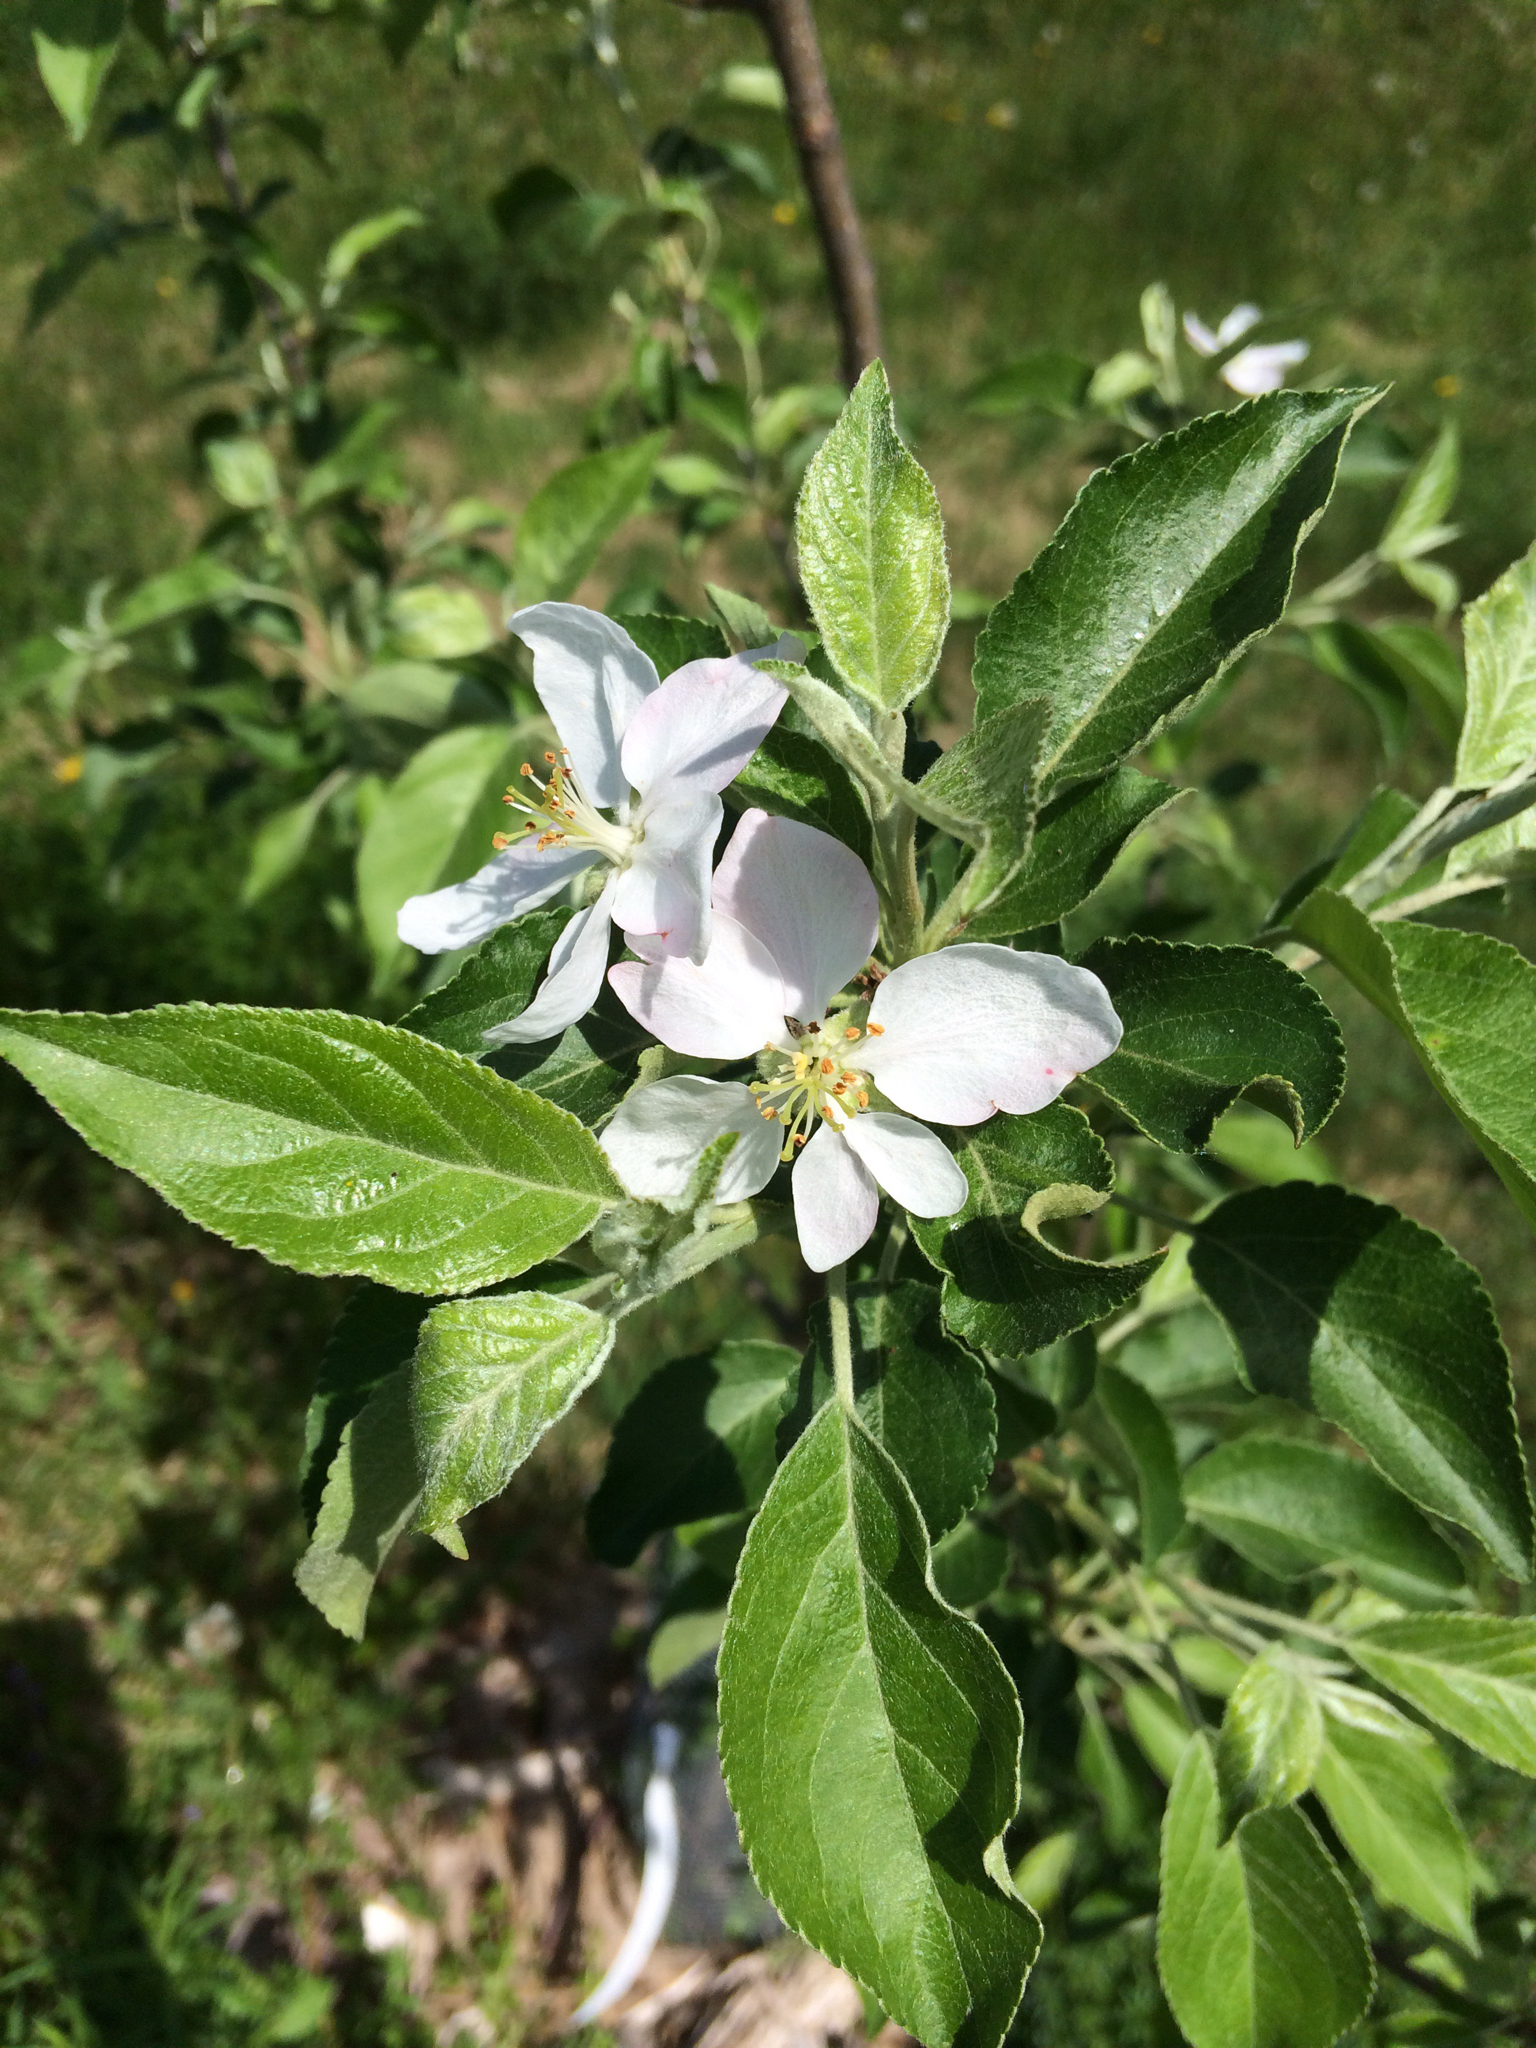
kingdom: Plantae
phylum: Tracheophyta
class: Magnoliopsida
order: Rosales
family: Rosaceae
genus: Malus
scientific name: Malus domestica
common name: Apple
